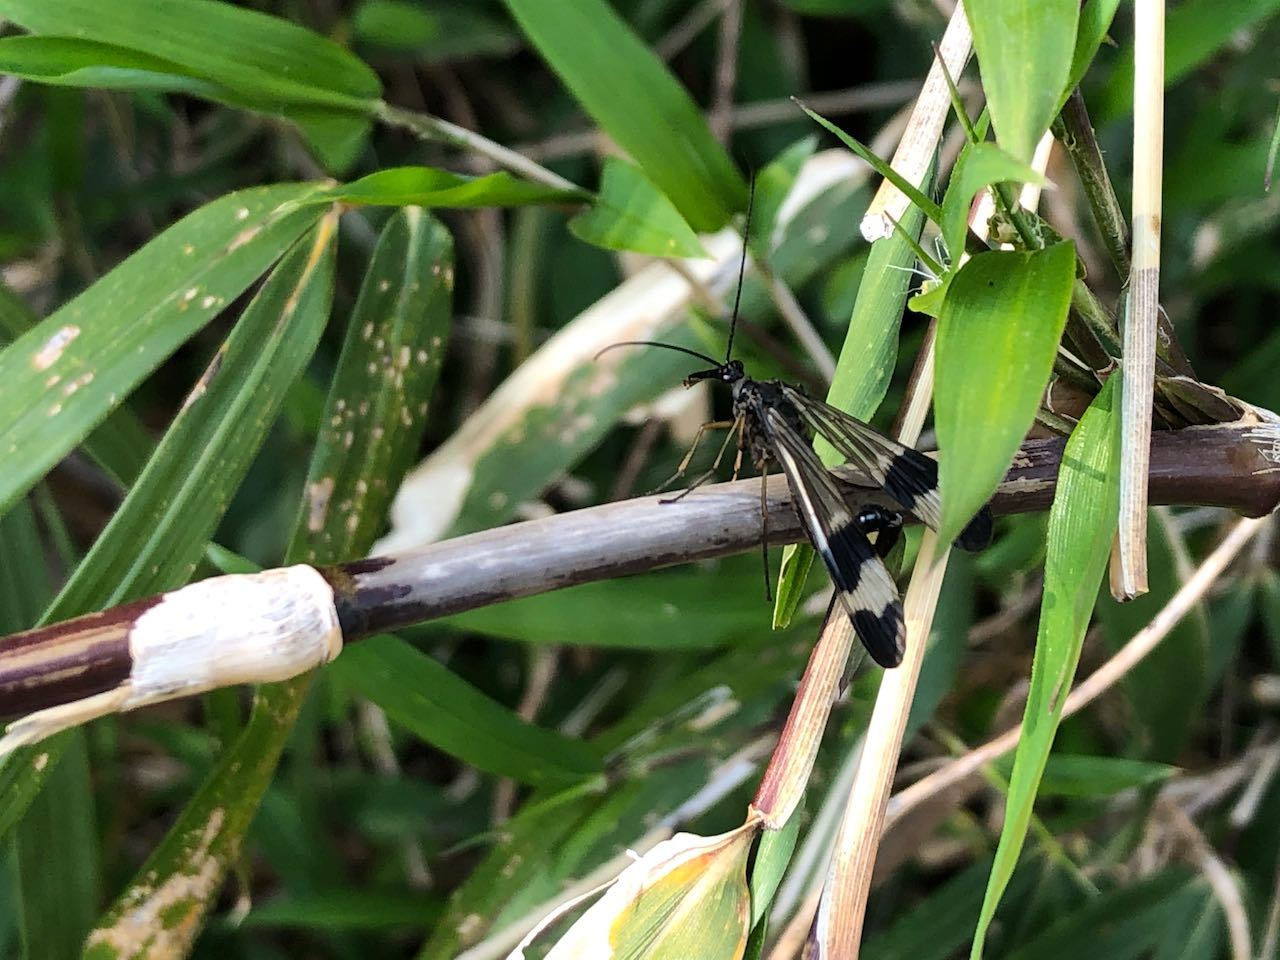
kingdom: Animalia
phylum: Arthropoda
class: Insecta
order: Mecoptera
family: Panorpidae
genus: Panorpa
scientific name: Panorpa japonica
